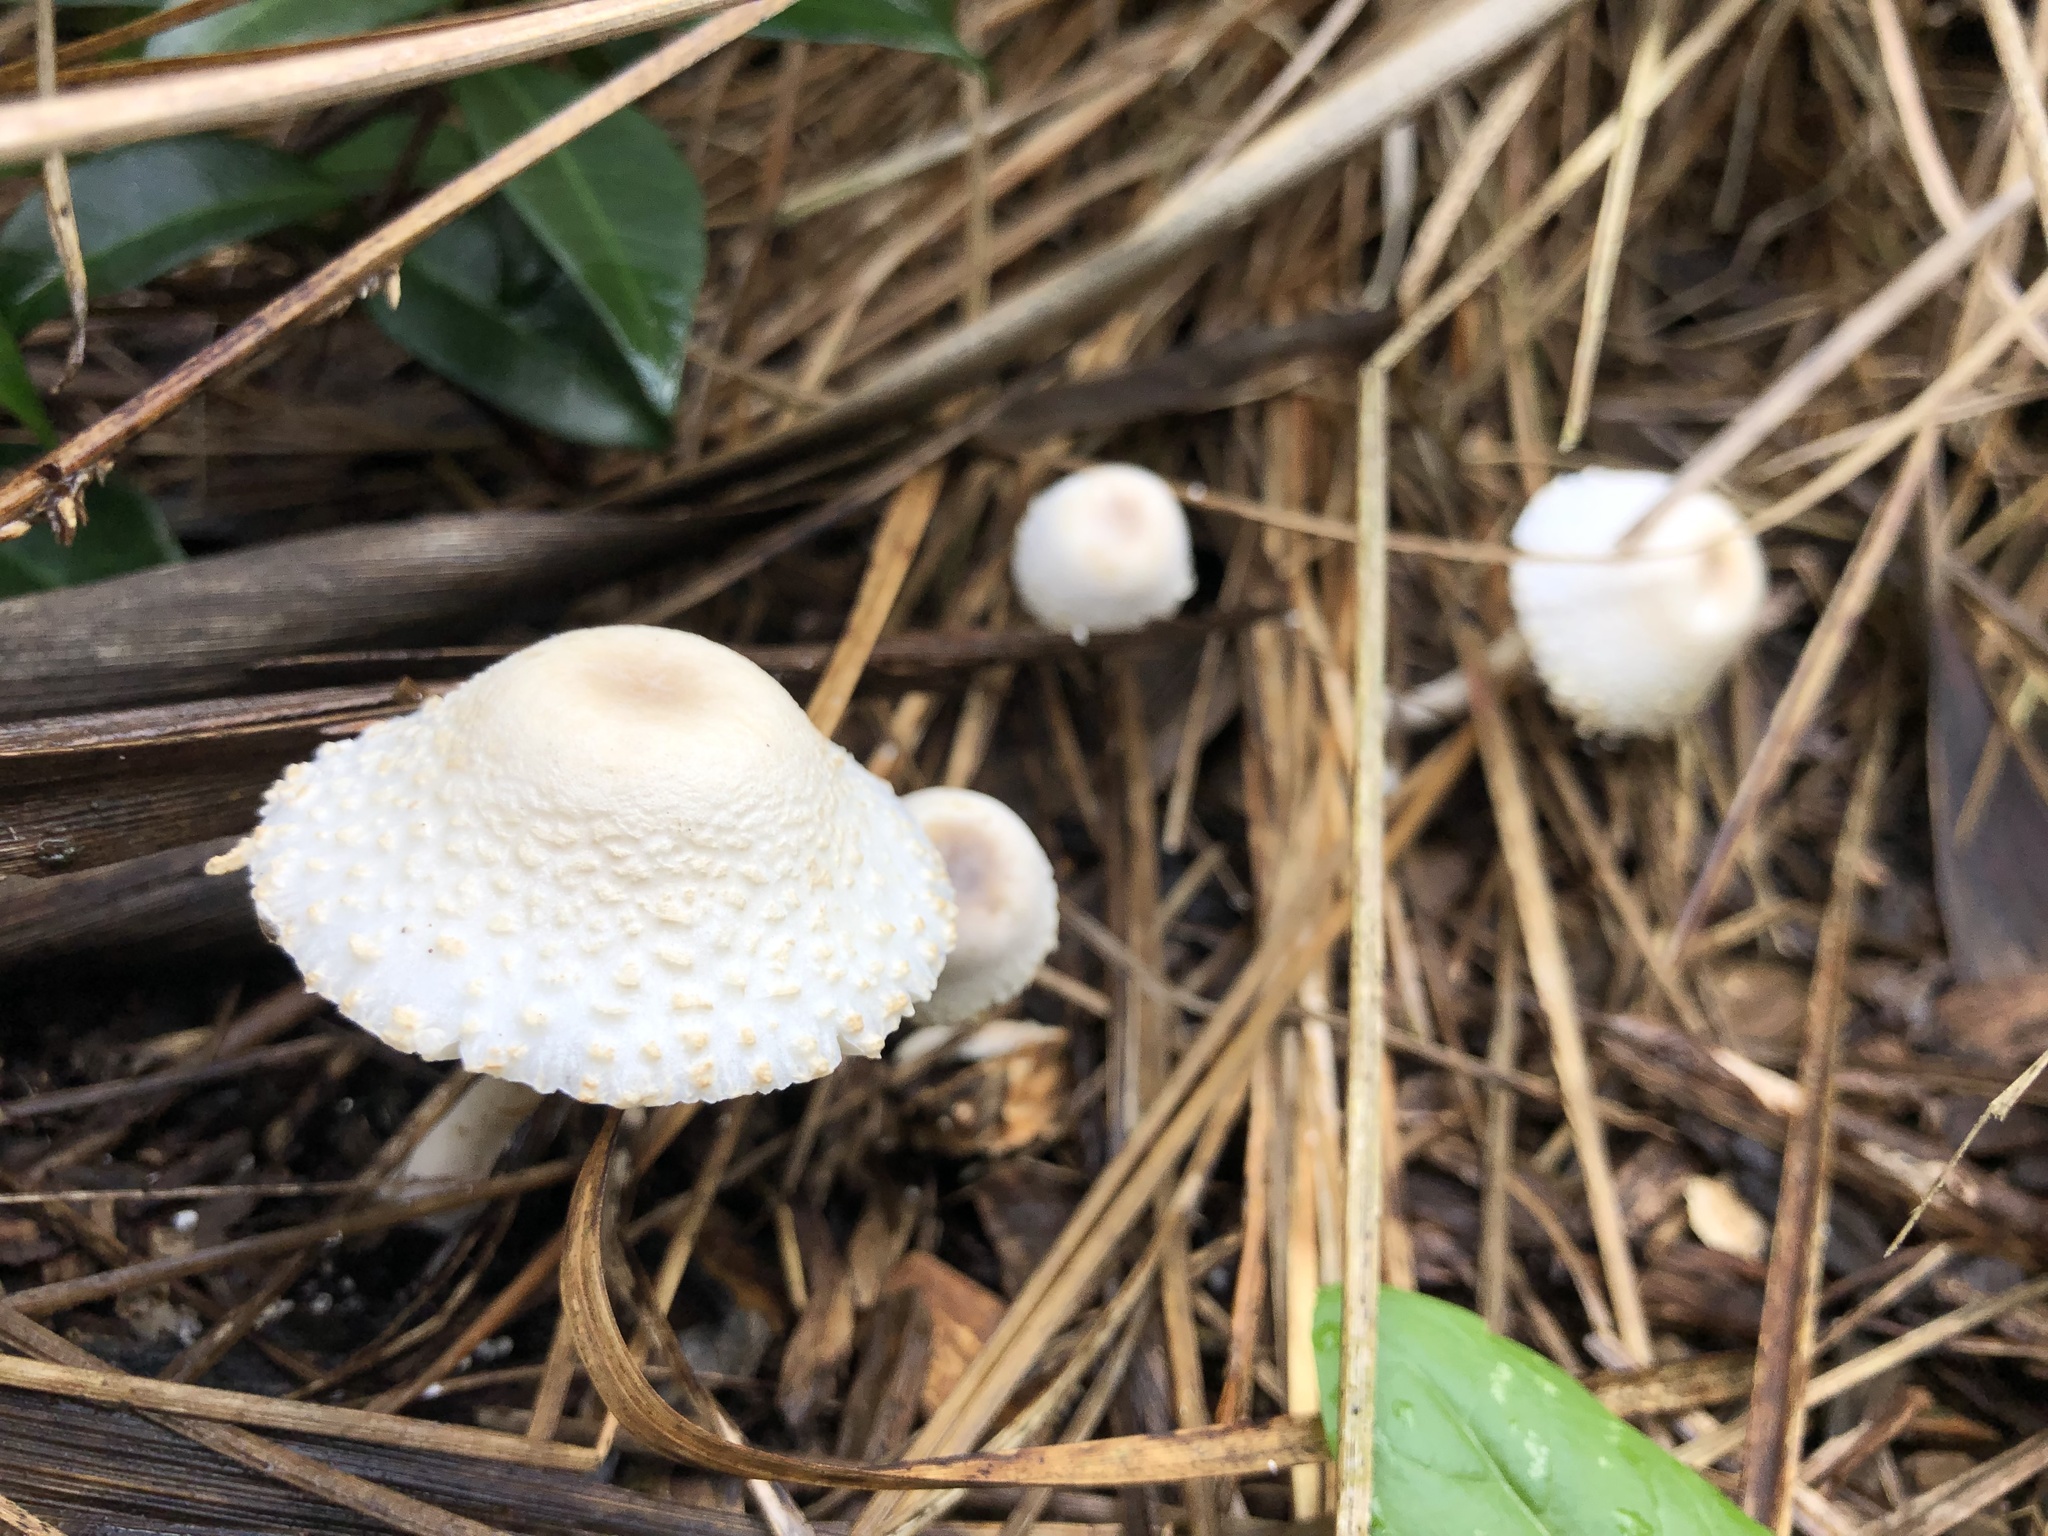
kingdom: Fungi
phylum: Basidiomycota
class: Agaricomycetes
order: Agaricales
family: Agaricaceae
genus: Leucocoprinus
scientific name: Leucocoprinus cepistipes
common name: Onion-stalk parasol
